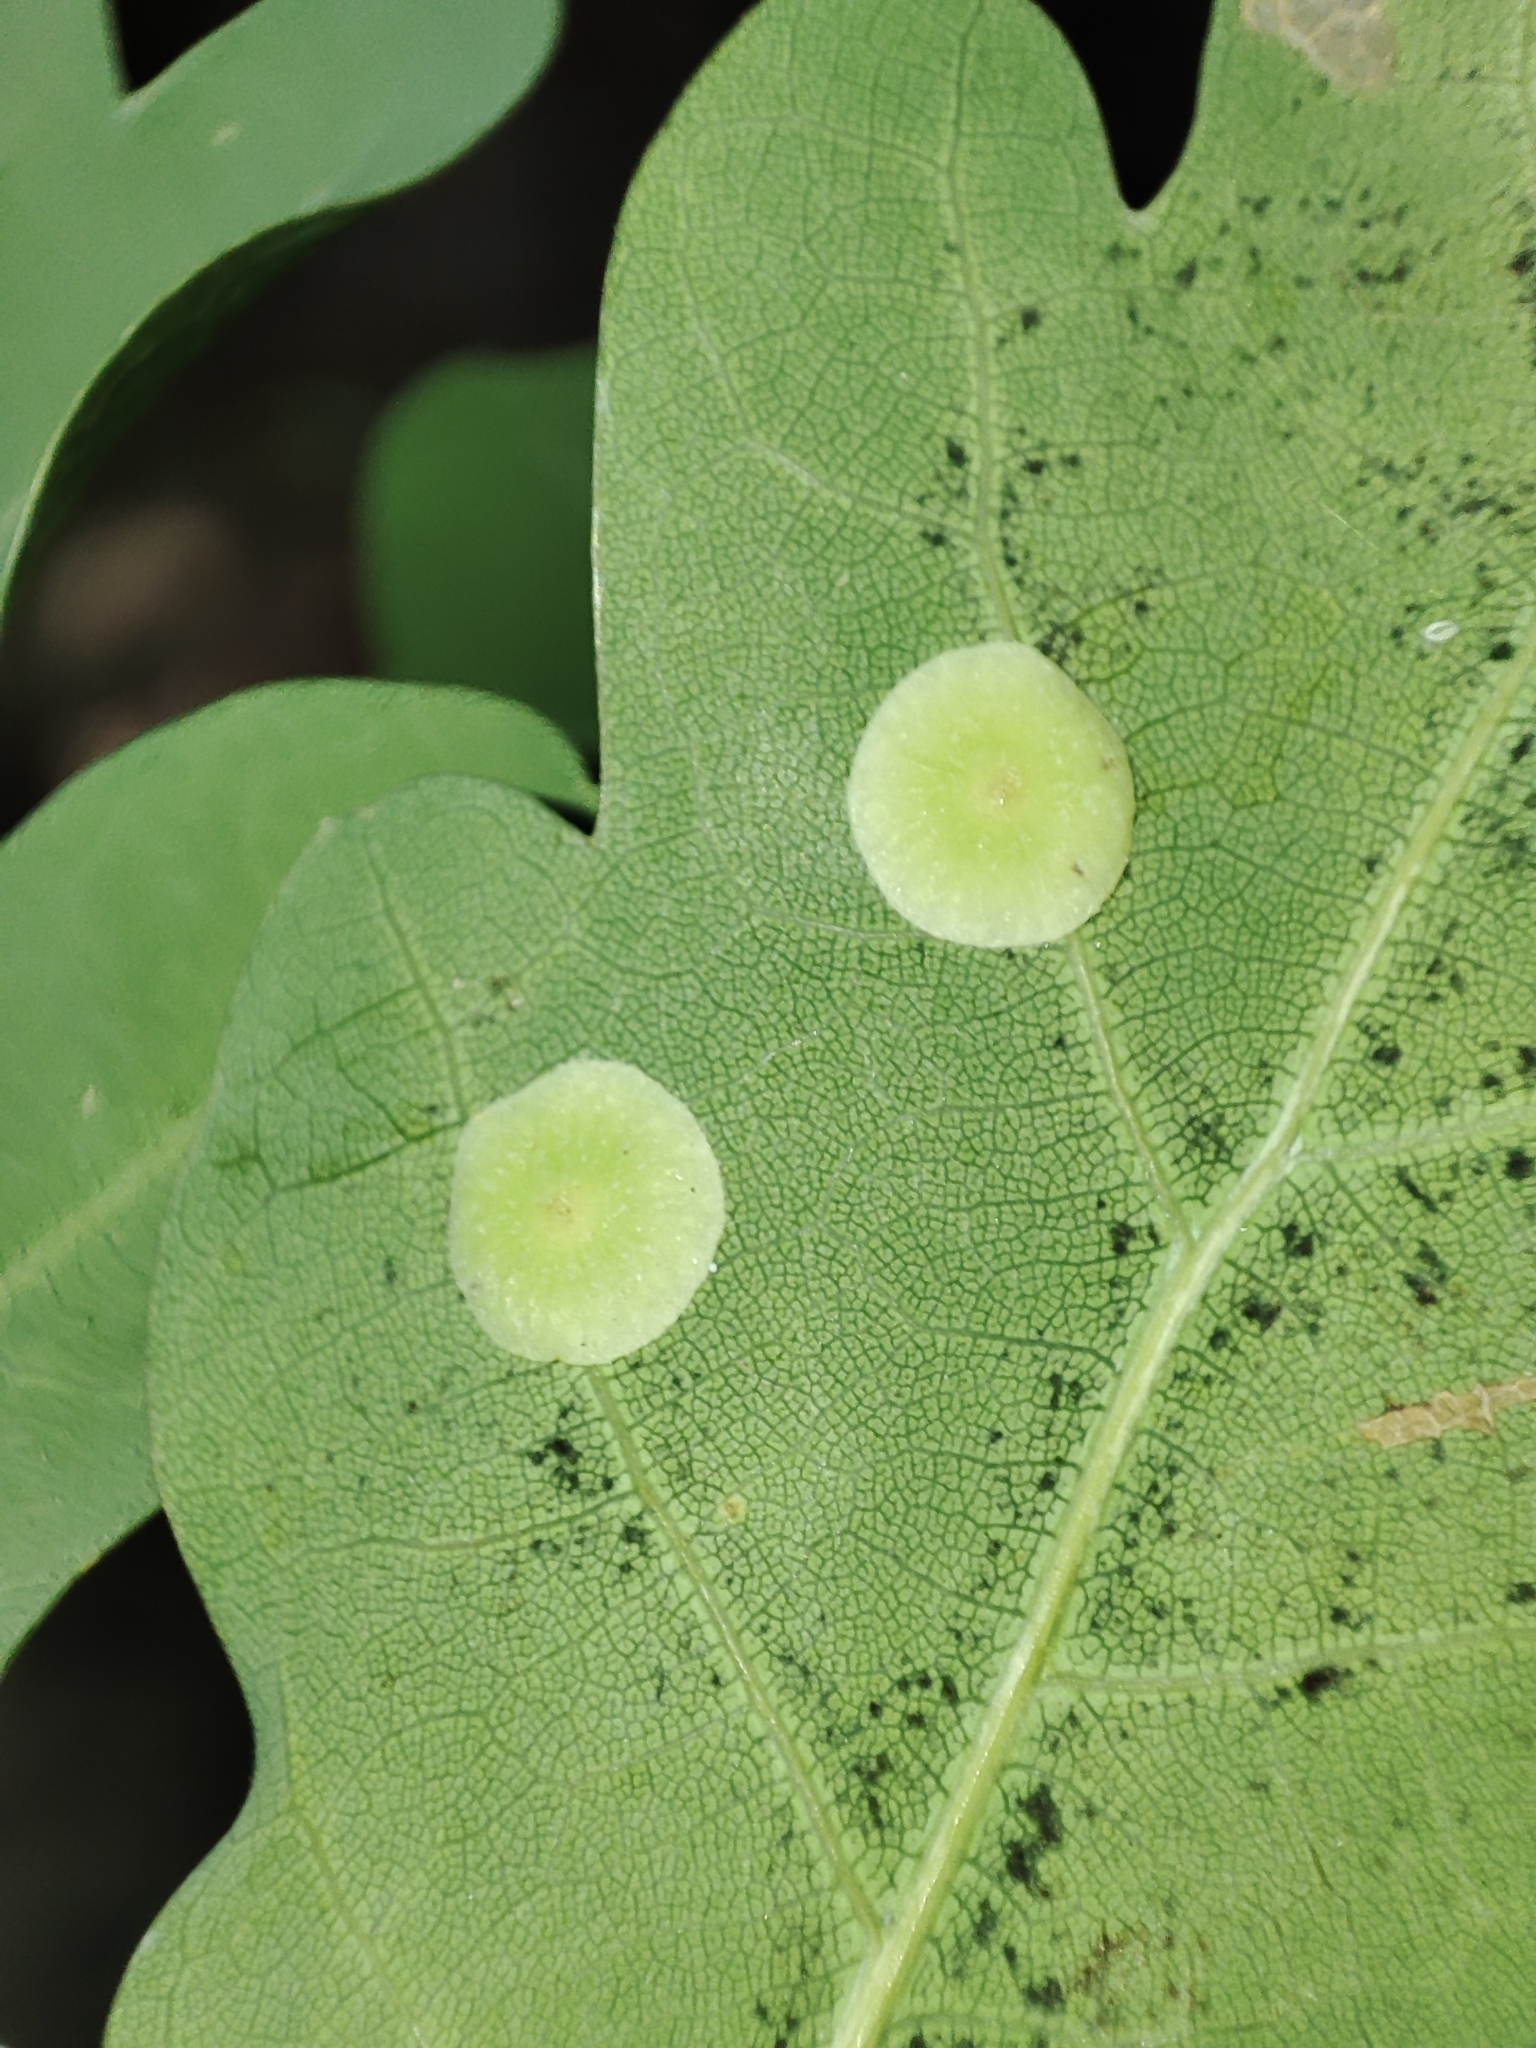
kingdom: Plantae
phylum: Tracheophyta
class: Magnoliopsida
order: Fagales
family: Fagaceae
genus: Quercus
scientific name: Quercus robur
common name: Pedunculate oak
